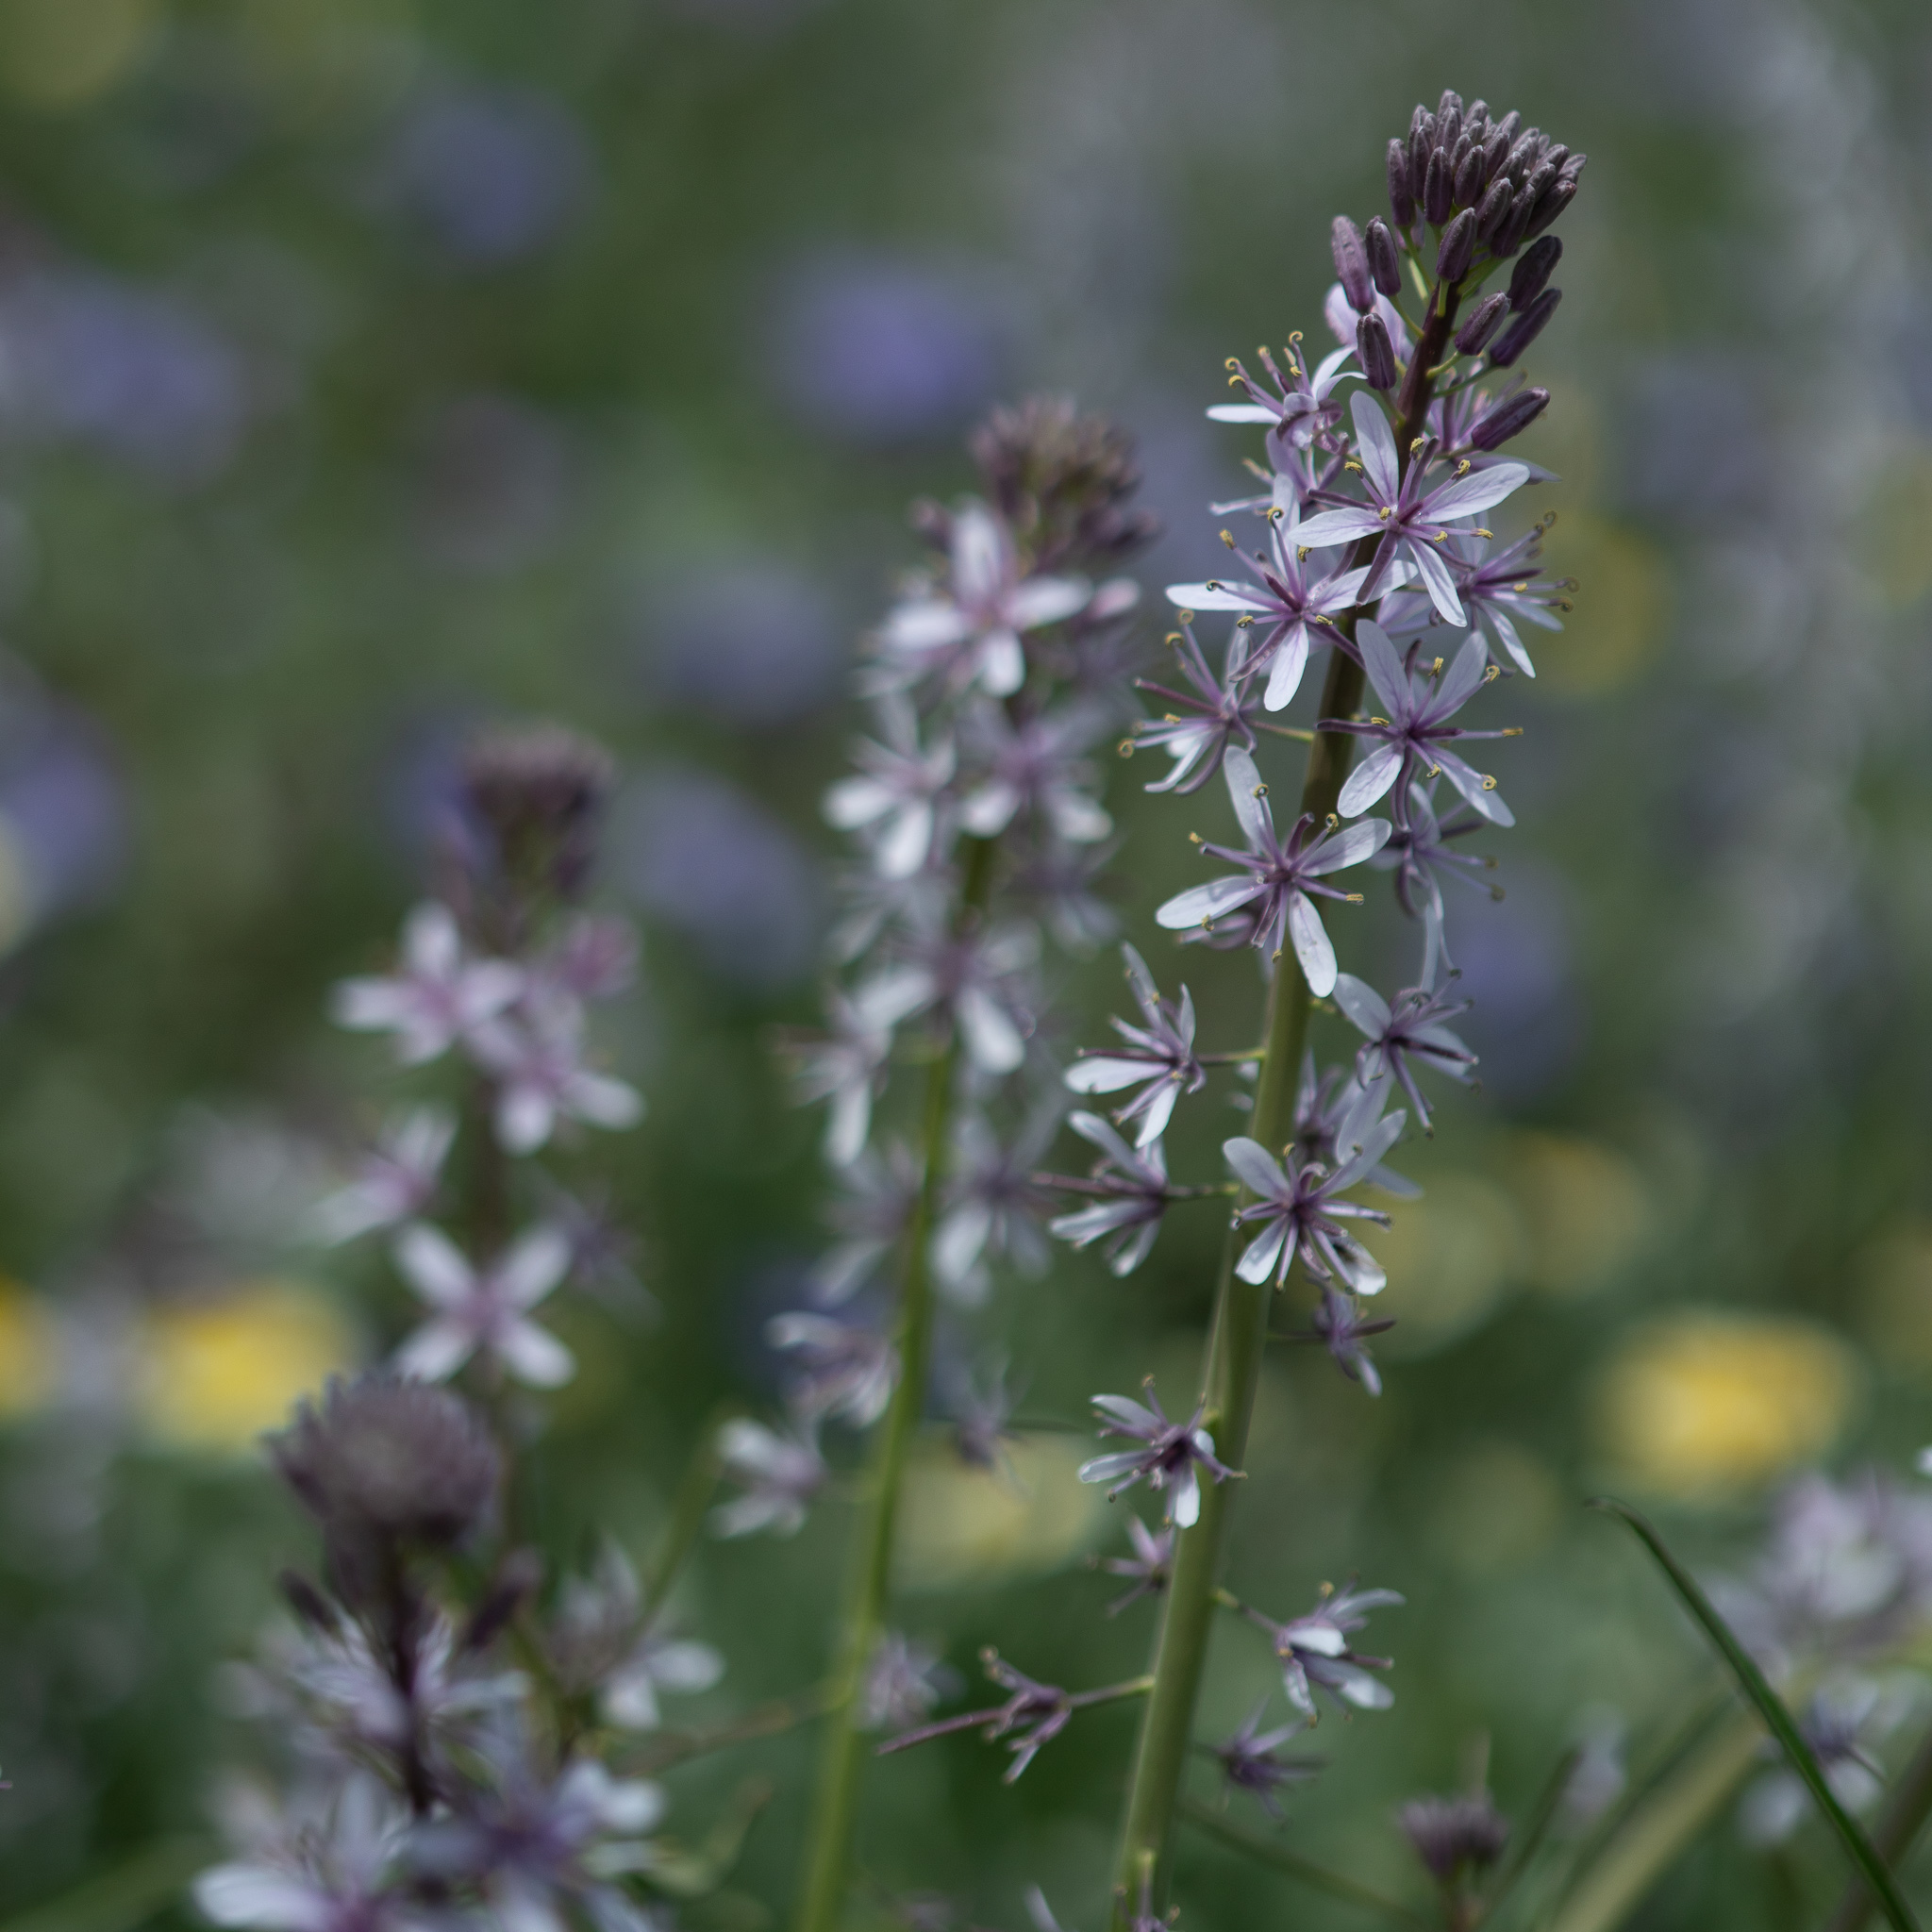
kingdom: Plantae
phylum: Tracheophyta
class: Magnoliopsida
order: Brassicales
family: Brassicaceae
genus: Streptanthus
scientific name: Streptanthus anceps
